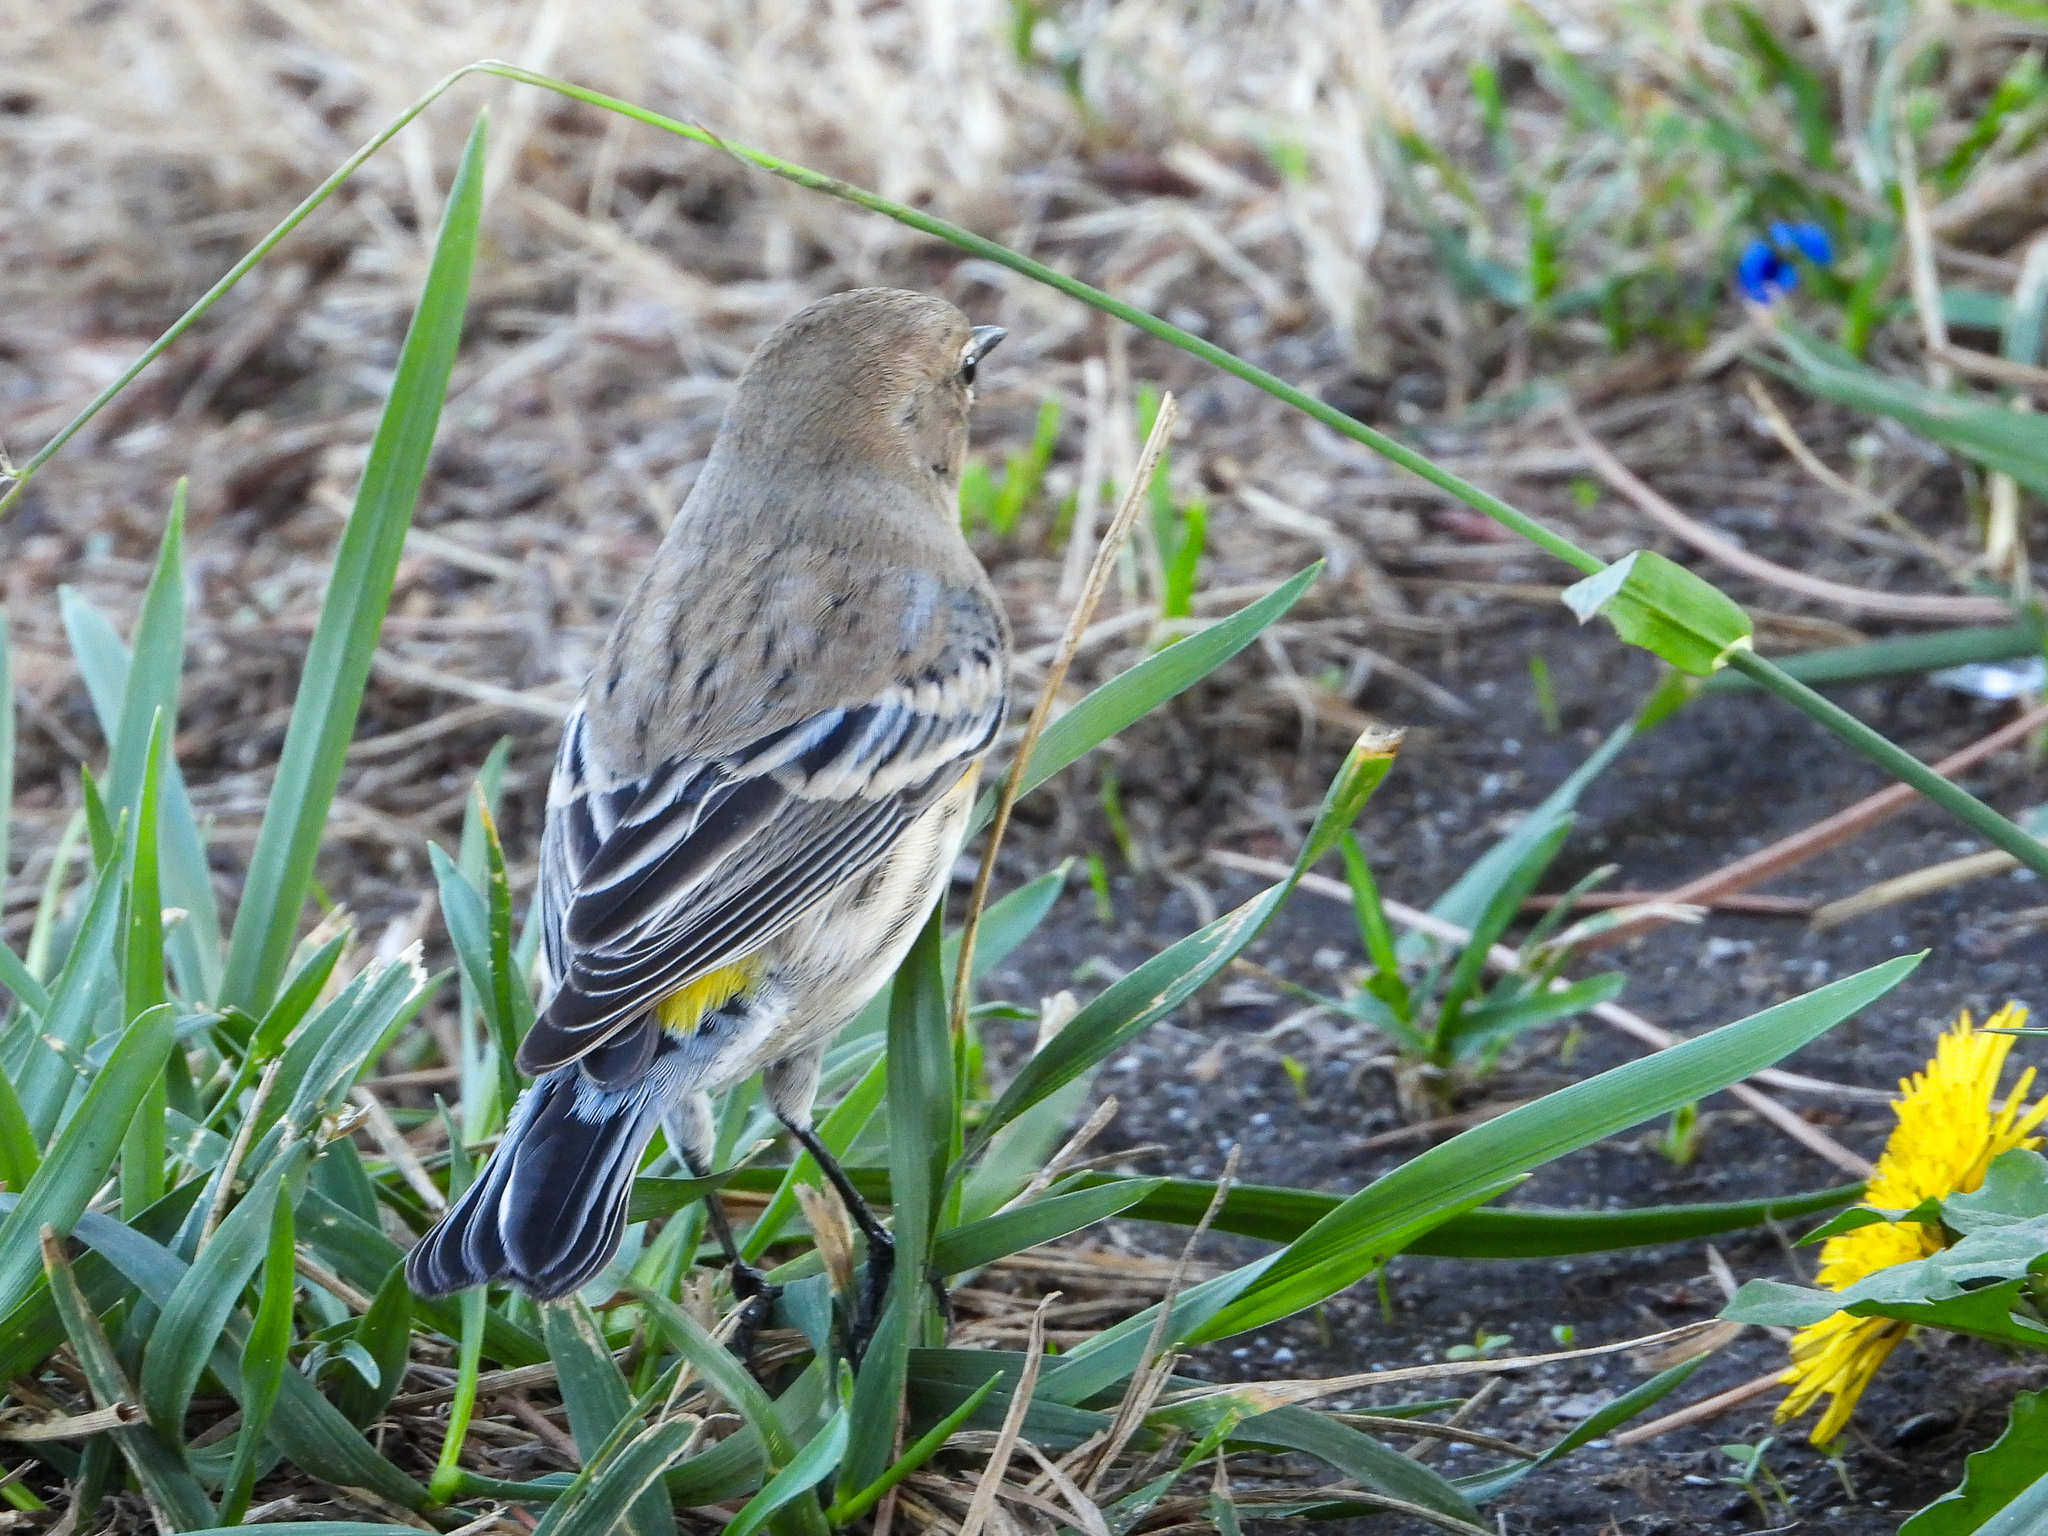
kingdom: Animalia
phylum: Chordata
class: Aves
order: Passeriformes
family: Parulidae
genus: Setophaga
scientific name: Setophaga coronata
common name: Myrtle warbler
